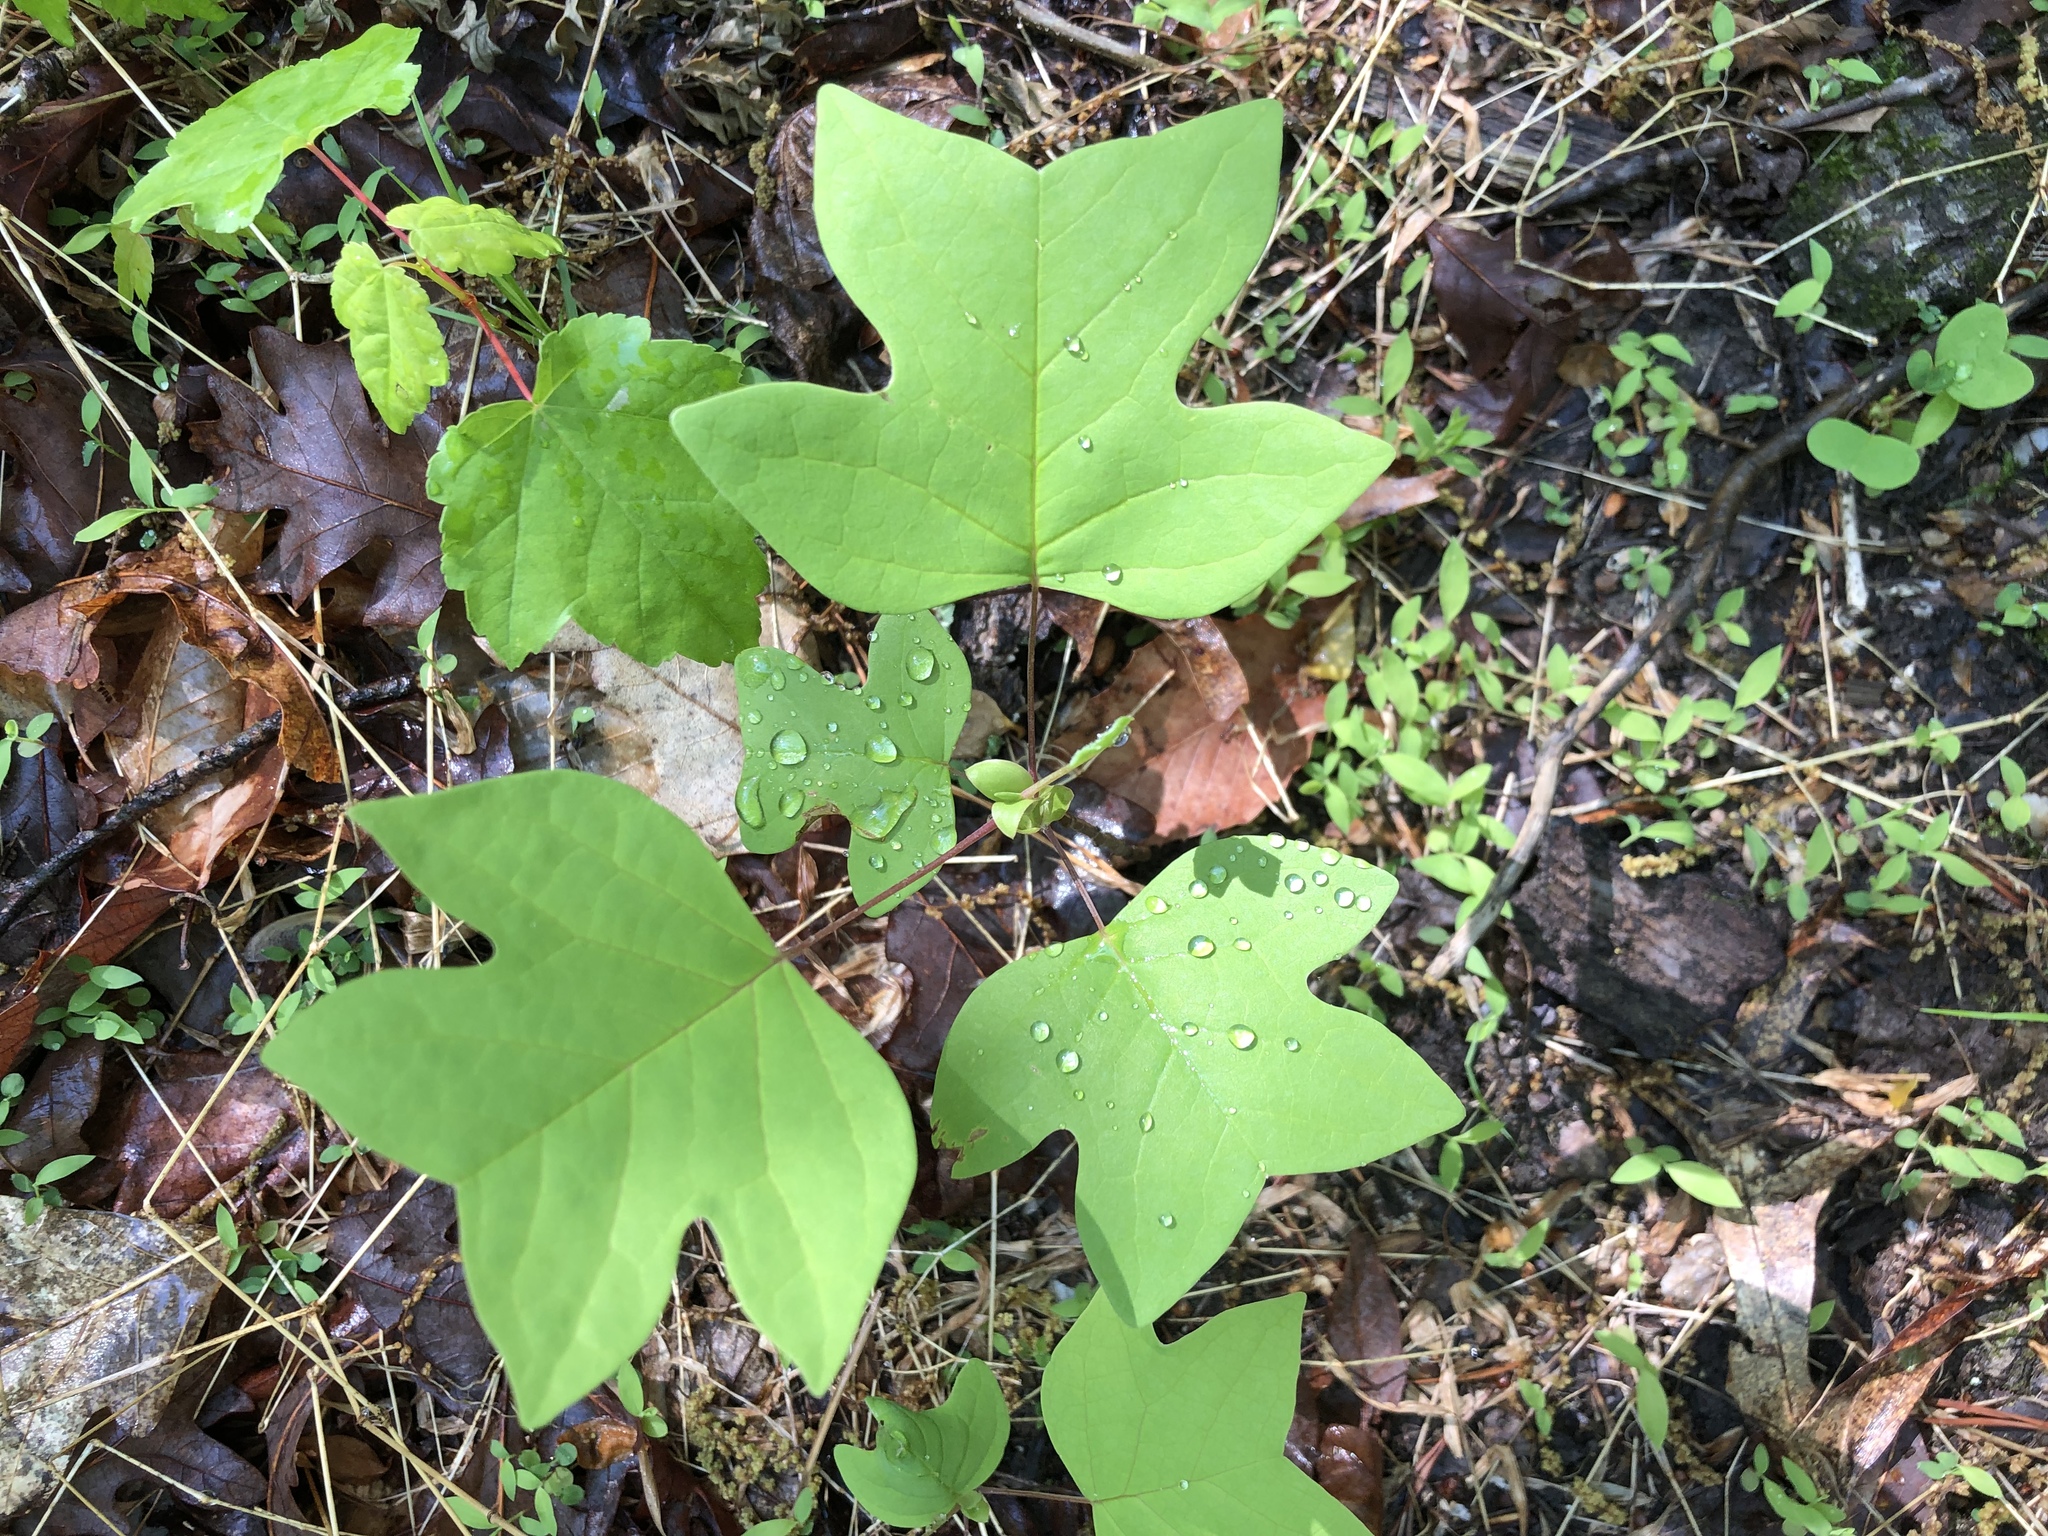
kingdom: Plantae
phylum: Tracheophyta
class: Magnoliopsida
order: Magnoliales
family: Magnoliaceae
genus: Liriodendron
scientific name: Liriodendron tulipifera
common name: Tulip tree
